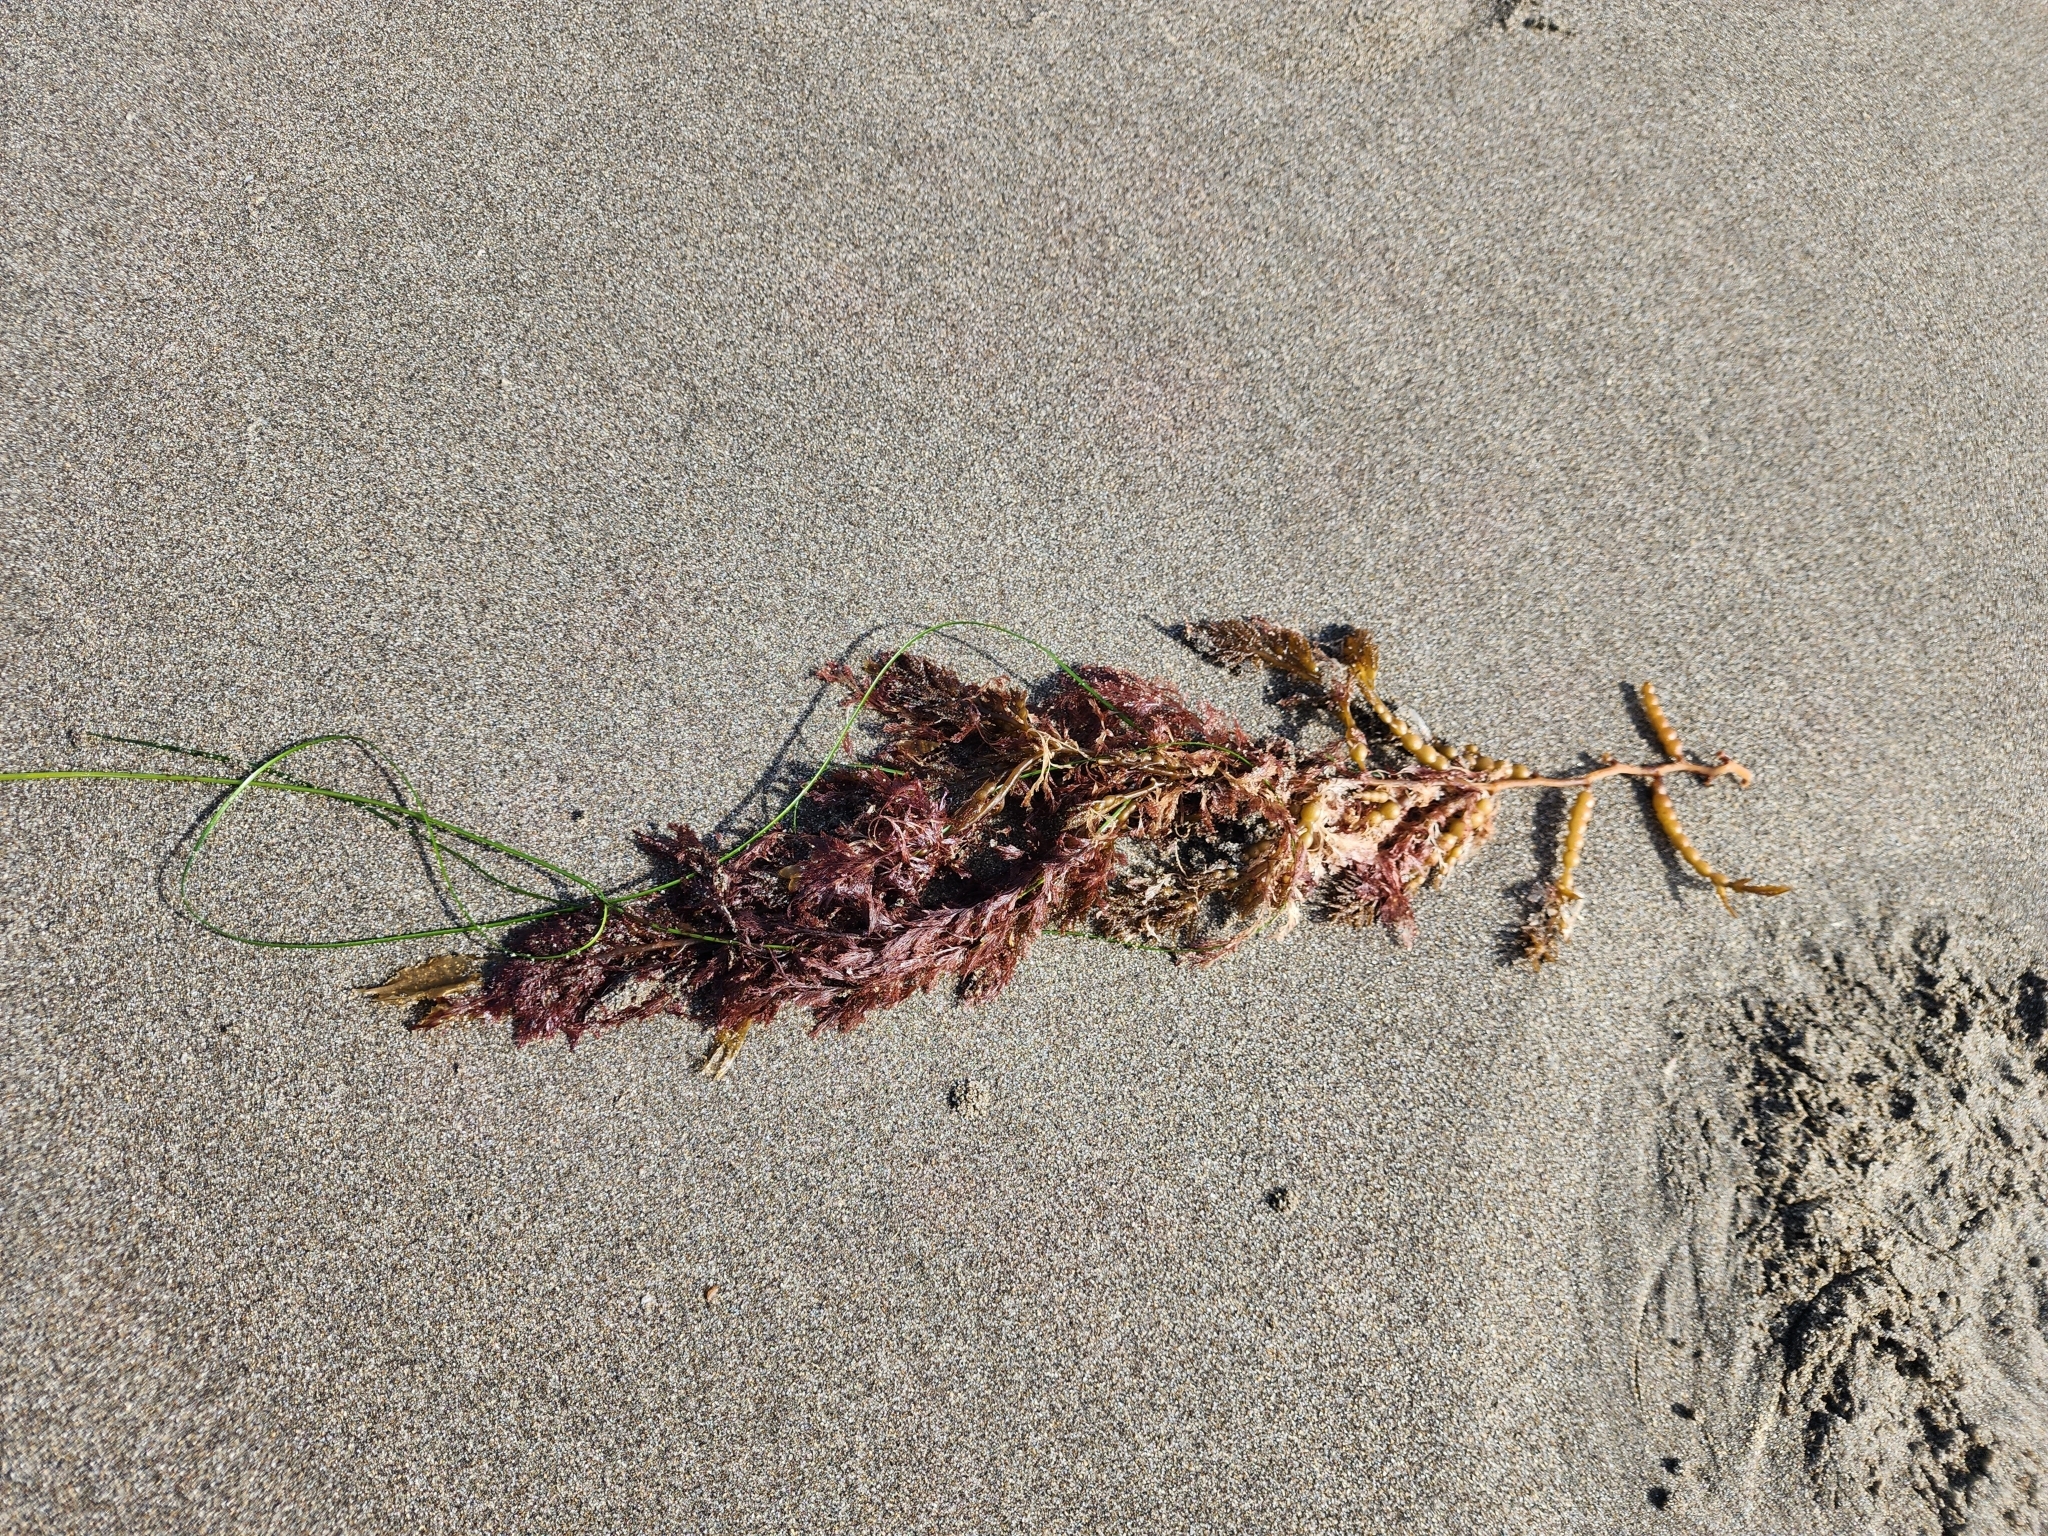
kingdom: Chromista
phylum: Ochrophyta
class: Phaeophyceae
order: Fucales
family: Sargassaceae
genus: Stephanocystis
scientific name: Stephanocystis
